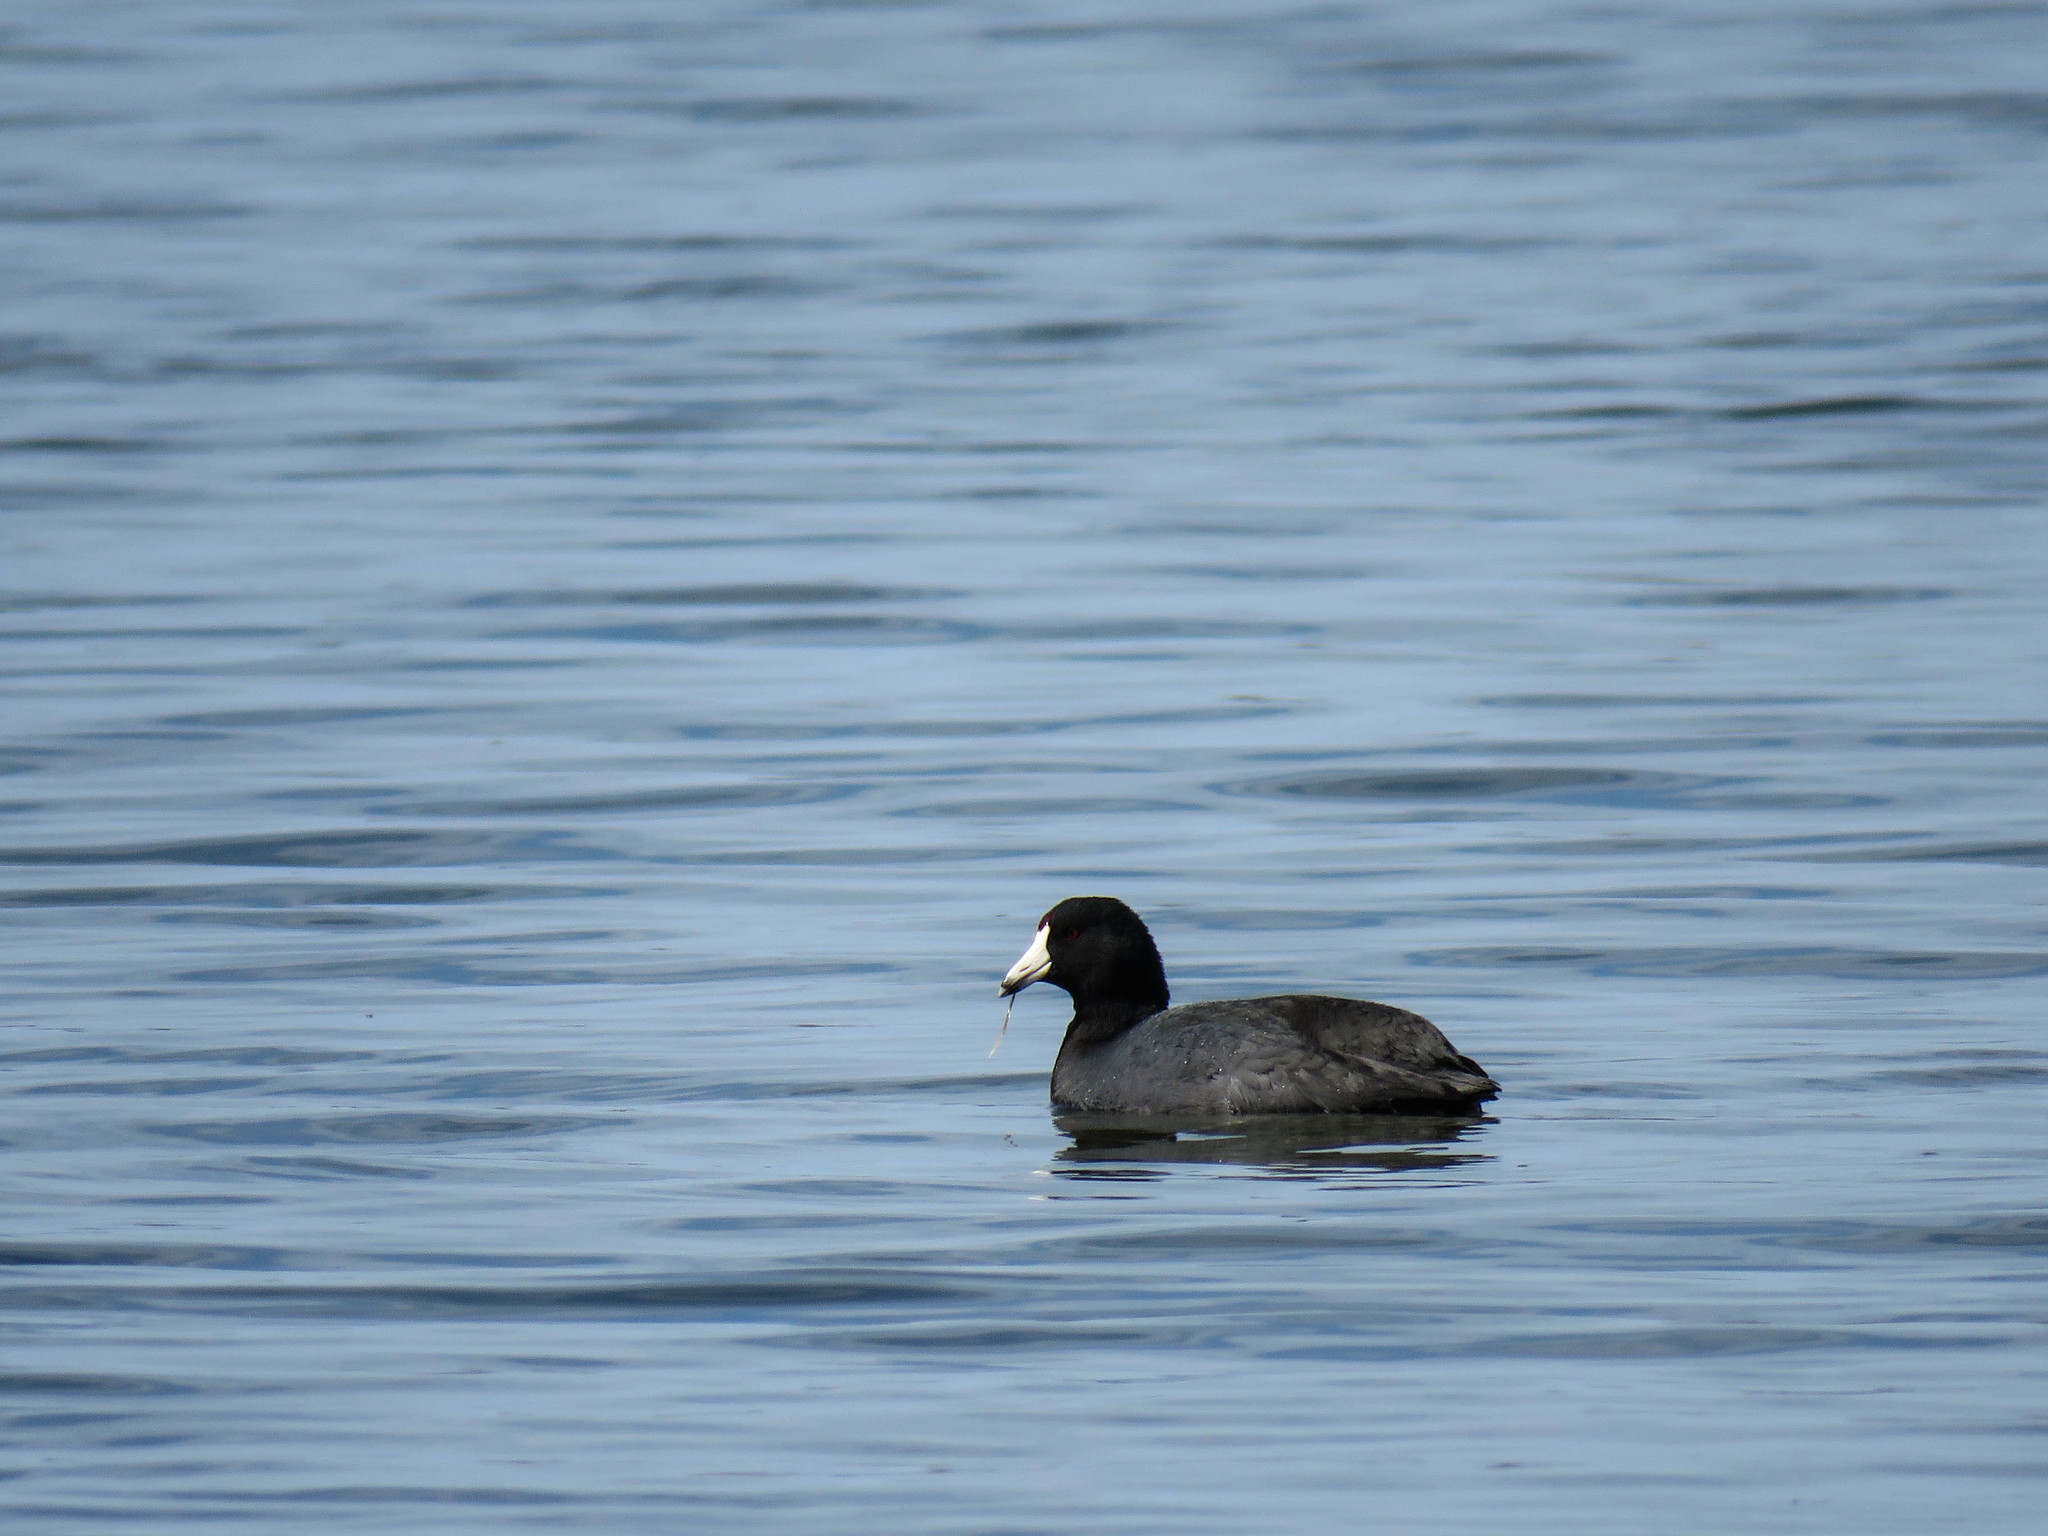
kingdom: Animalia
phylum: Chordata
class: Aves
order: Gruiformes
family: Rallidae
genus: Fulica
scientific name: Fulica americana
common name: American coot
